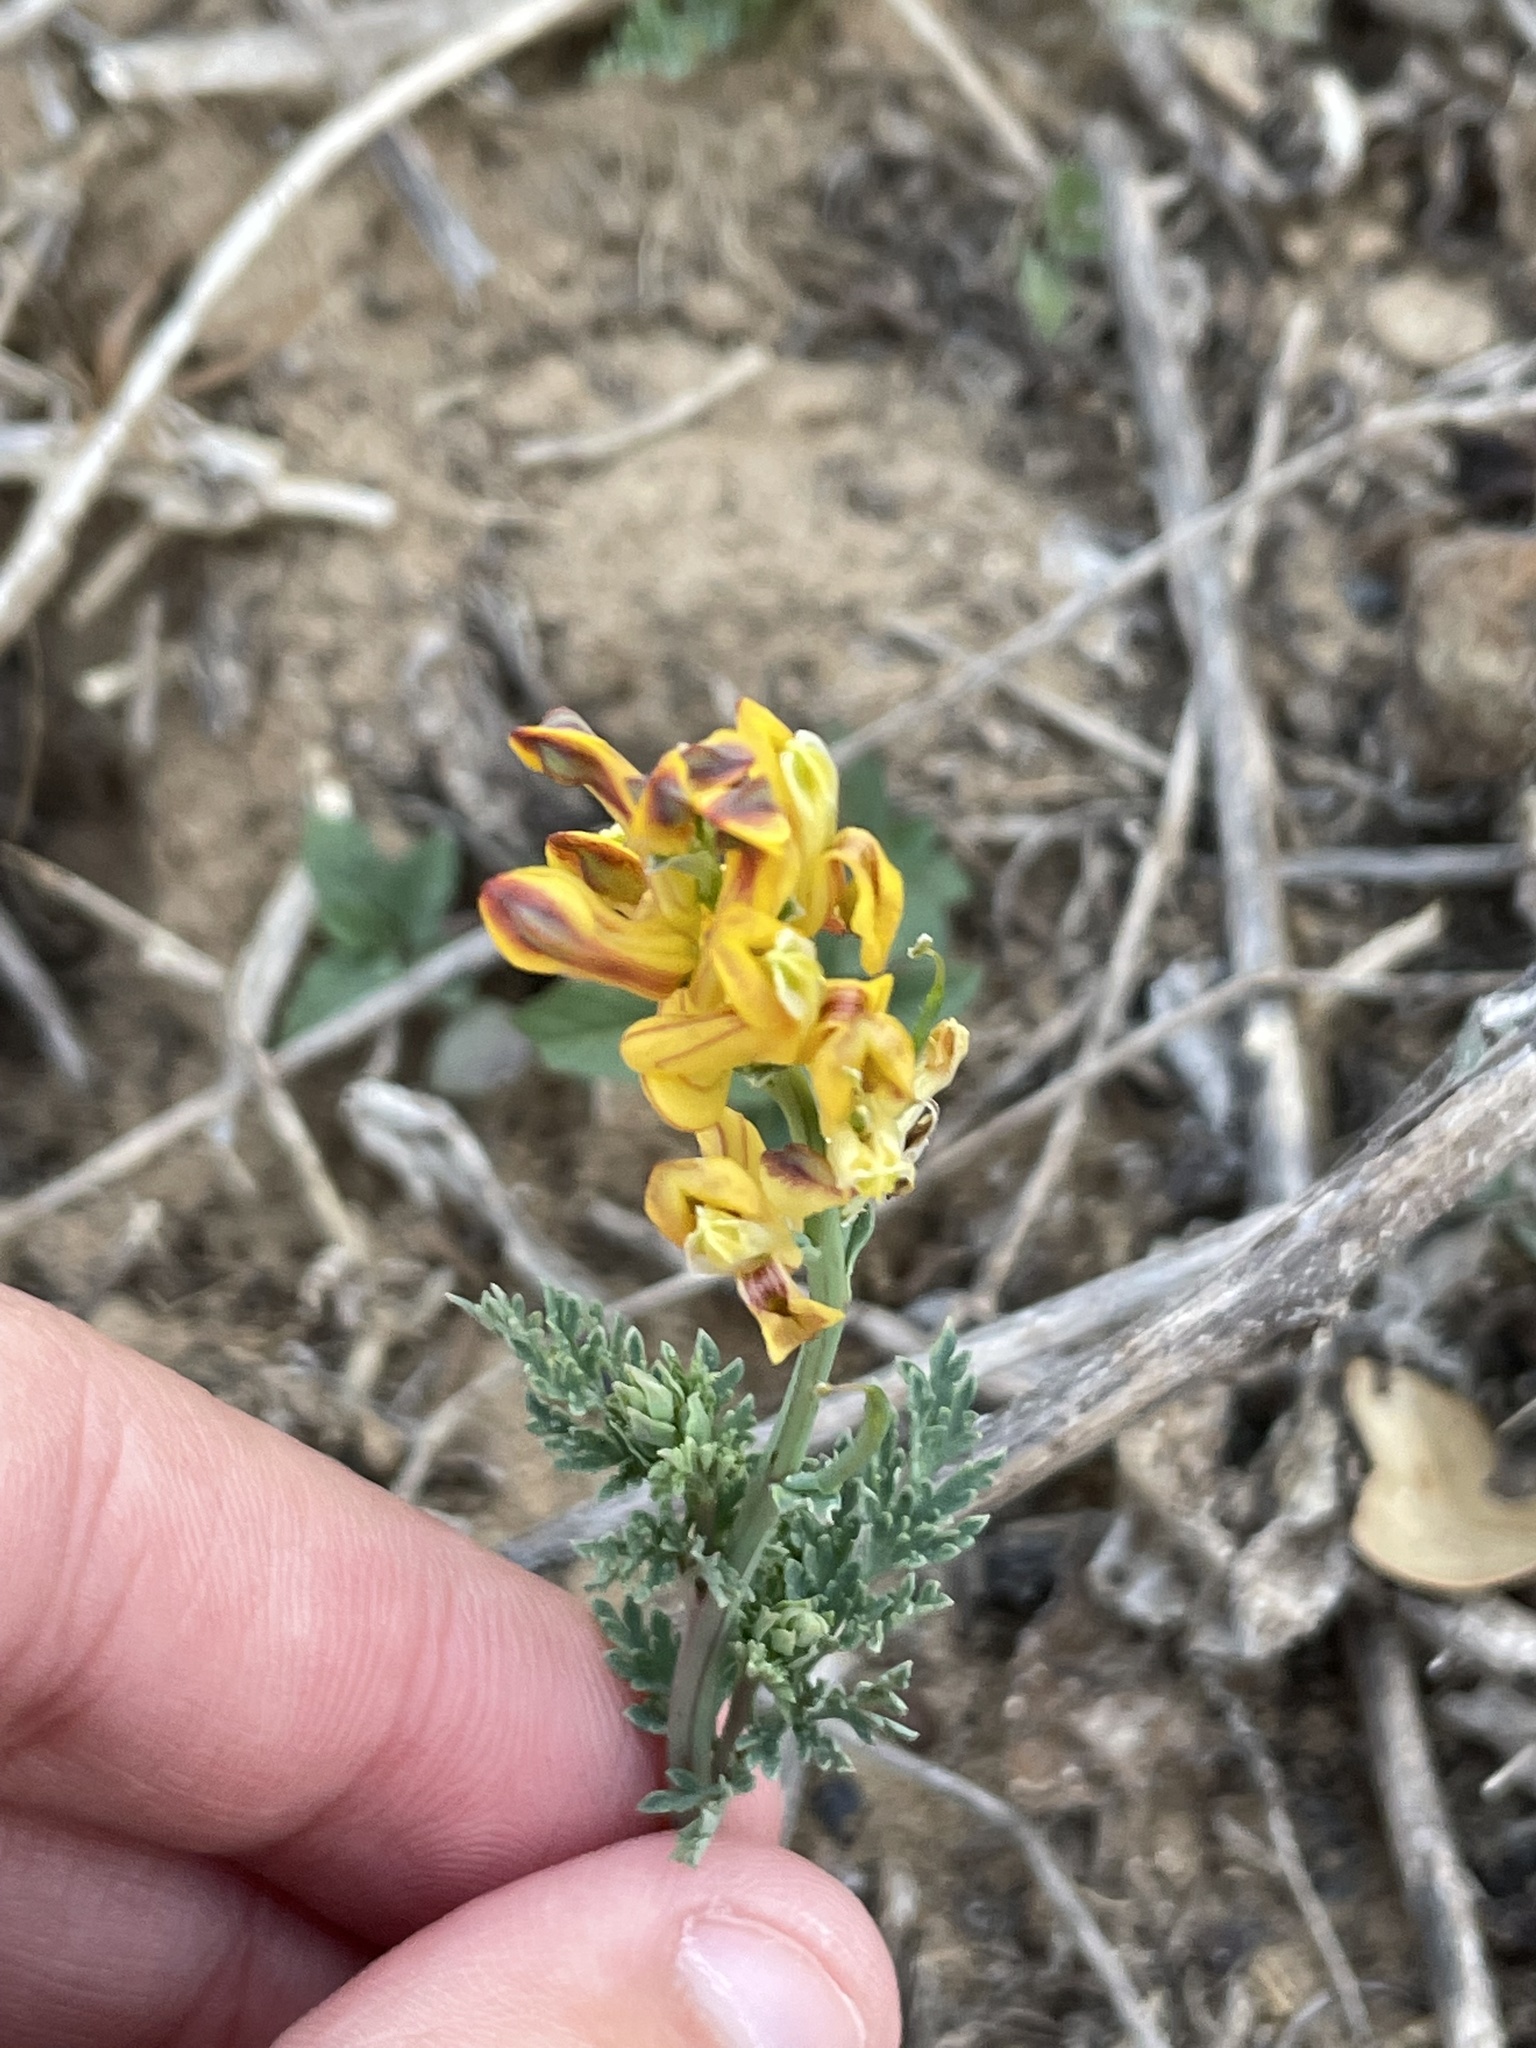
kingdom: Plantae
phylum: Tracheophyta
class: Magnoliopsida
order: Ranunculales
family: Papaveraceae
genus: Corydalis
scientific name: Corydalis aurea
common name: Golden corydalis
